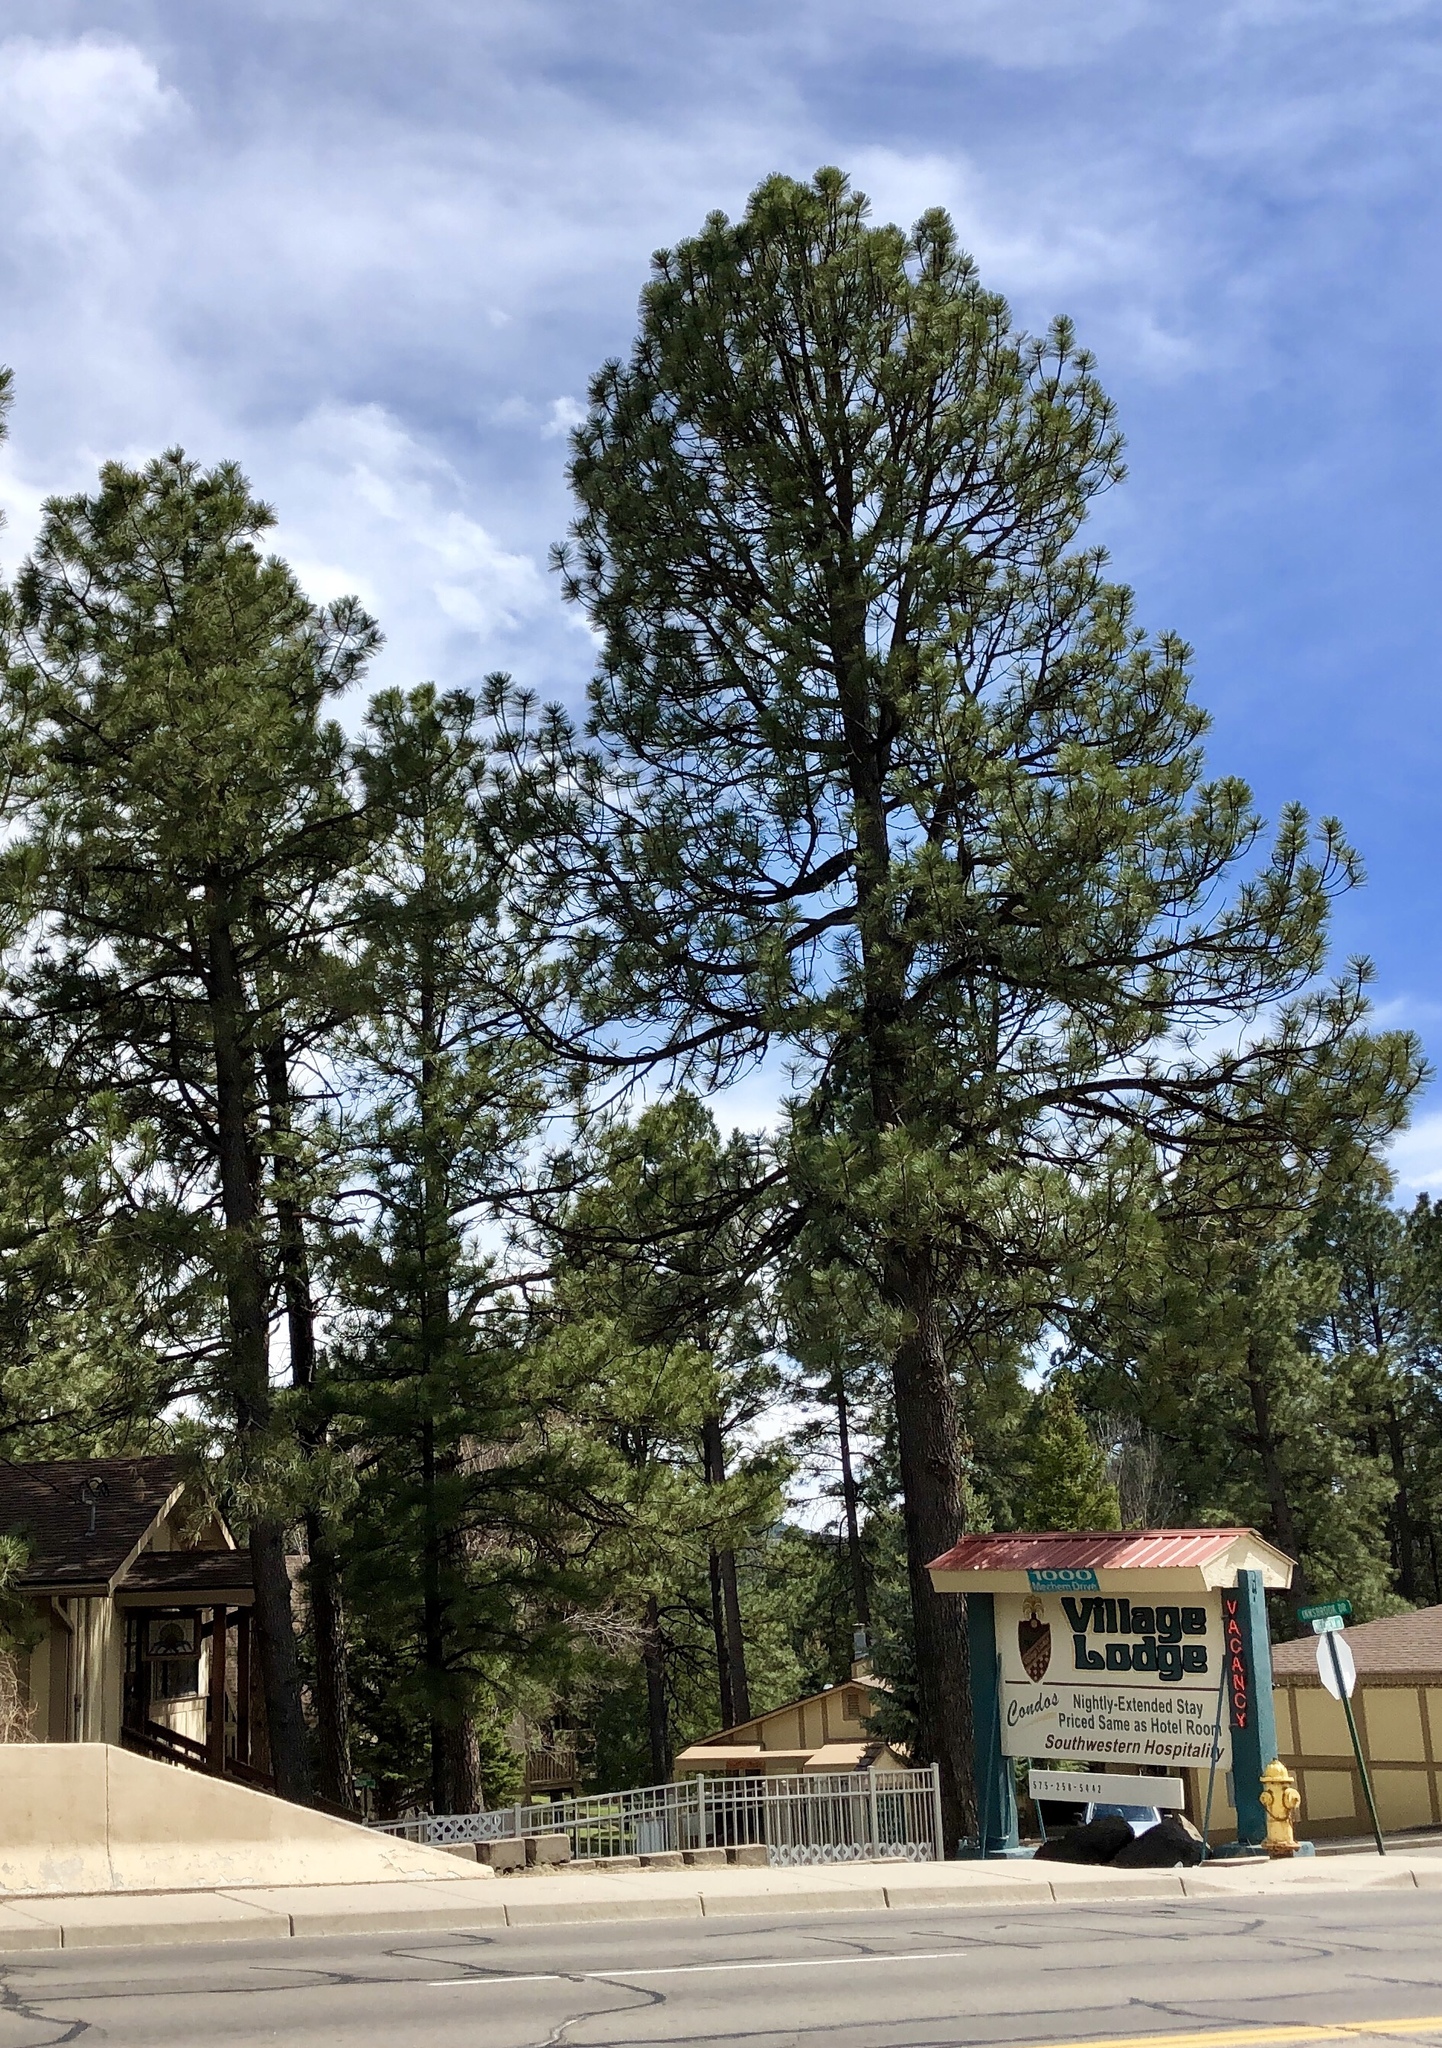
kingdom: Plantae
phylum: Tracheophyta
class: Pinopsida
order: Pinales
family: Pinaceae
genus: Pinus
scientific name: Pinus ponderosa
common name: Western yellow-pine
